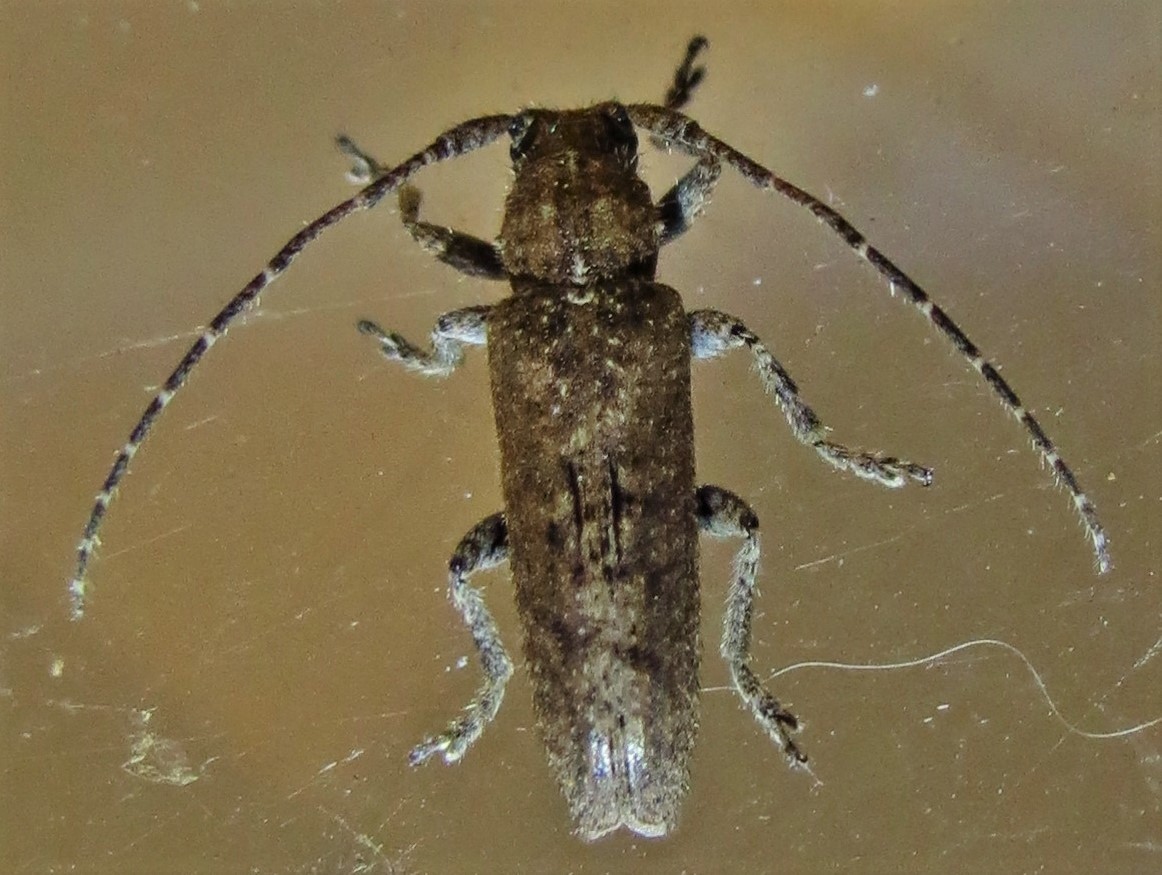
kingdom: Animalia
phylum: Arthropoda
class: Insecta
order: Coleoptera
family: Cerambycidae
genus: Ataxia
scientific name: Ataxia crypta
